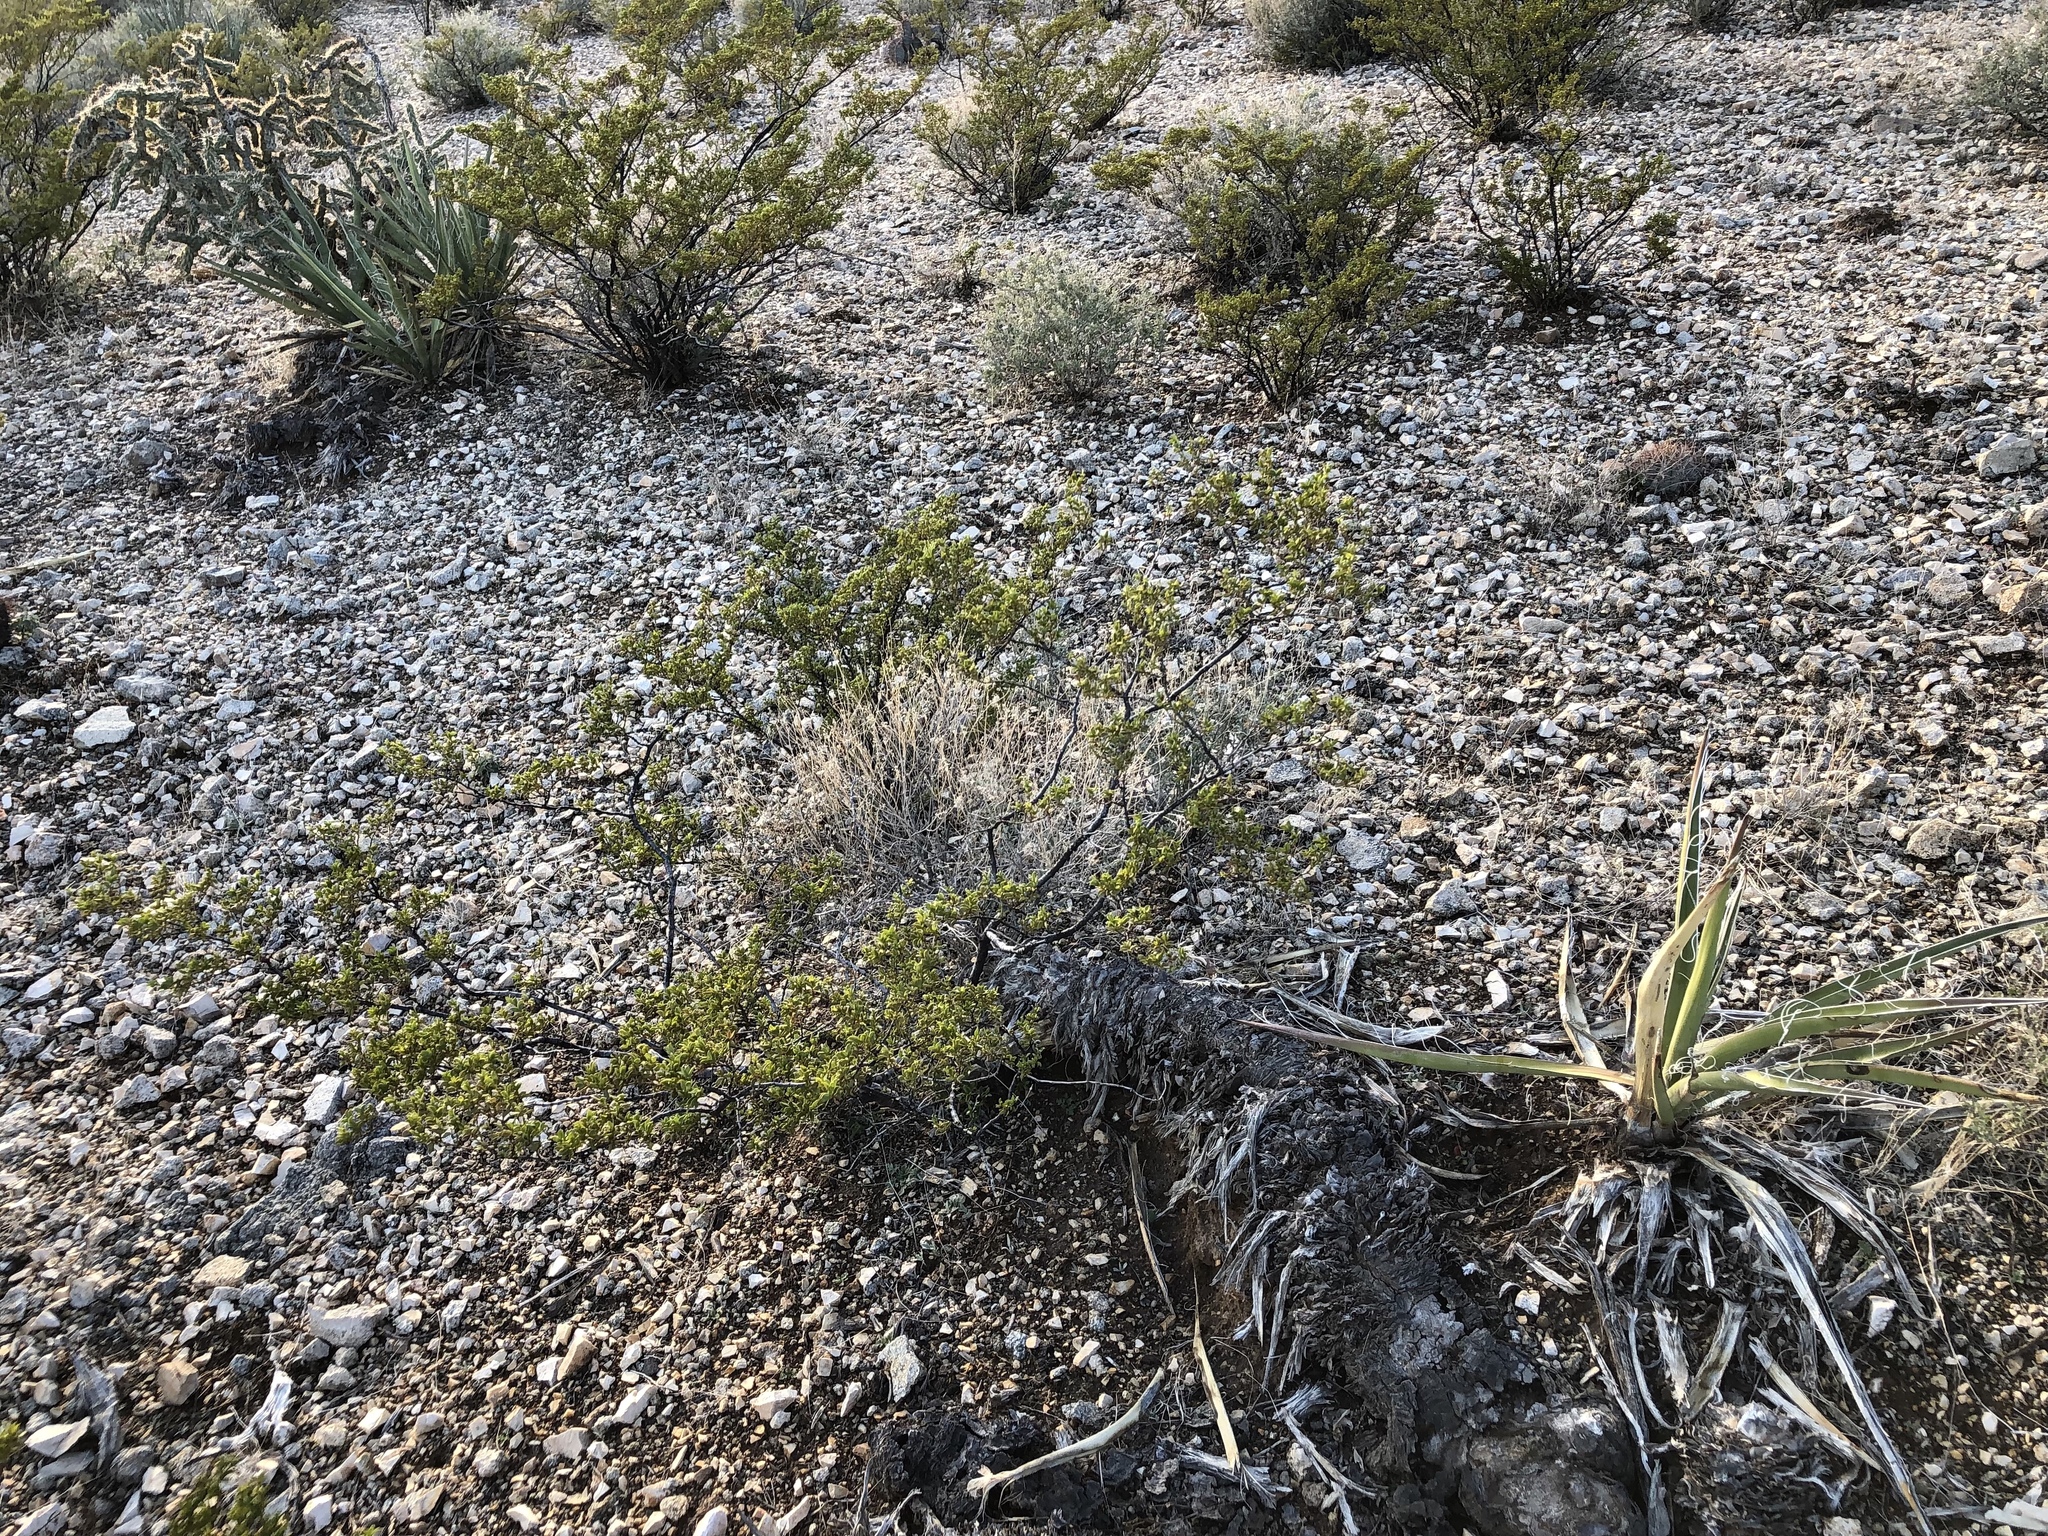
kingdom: Plantae
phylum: Tracheophyta
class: Magnoliopsida
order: Zygophyllales
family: Zygophyllaceae
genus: Larrea
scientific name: Larrea tridentata
